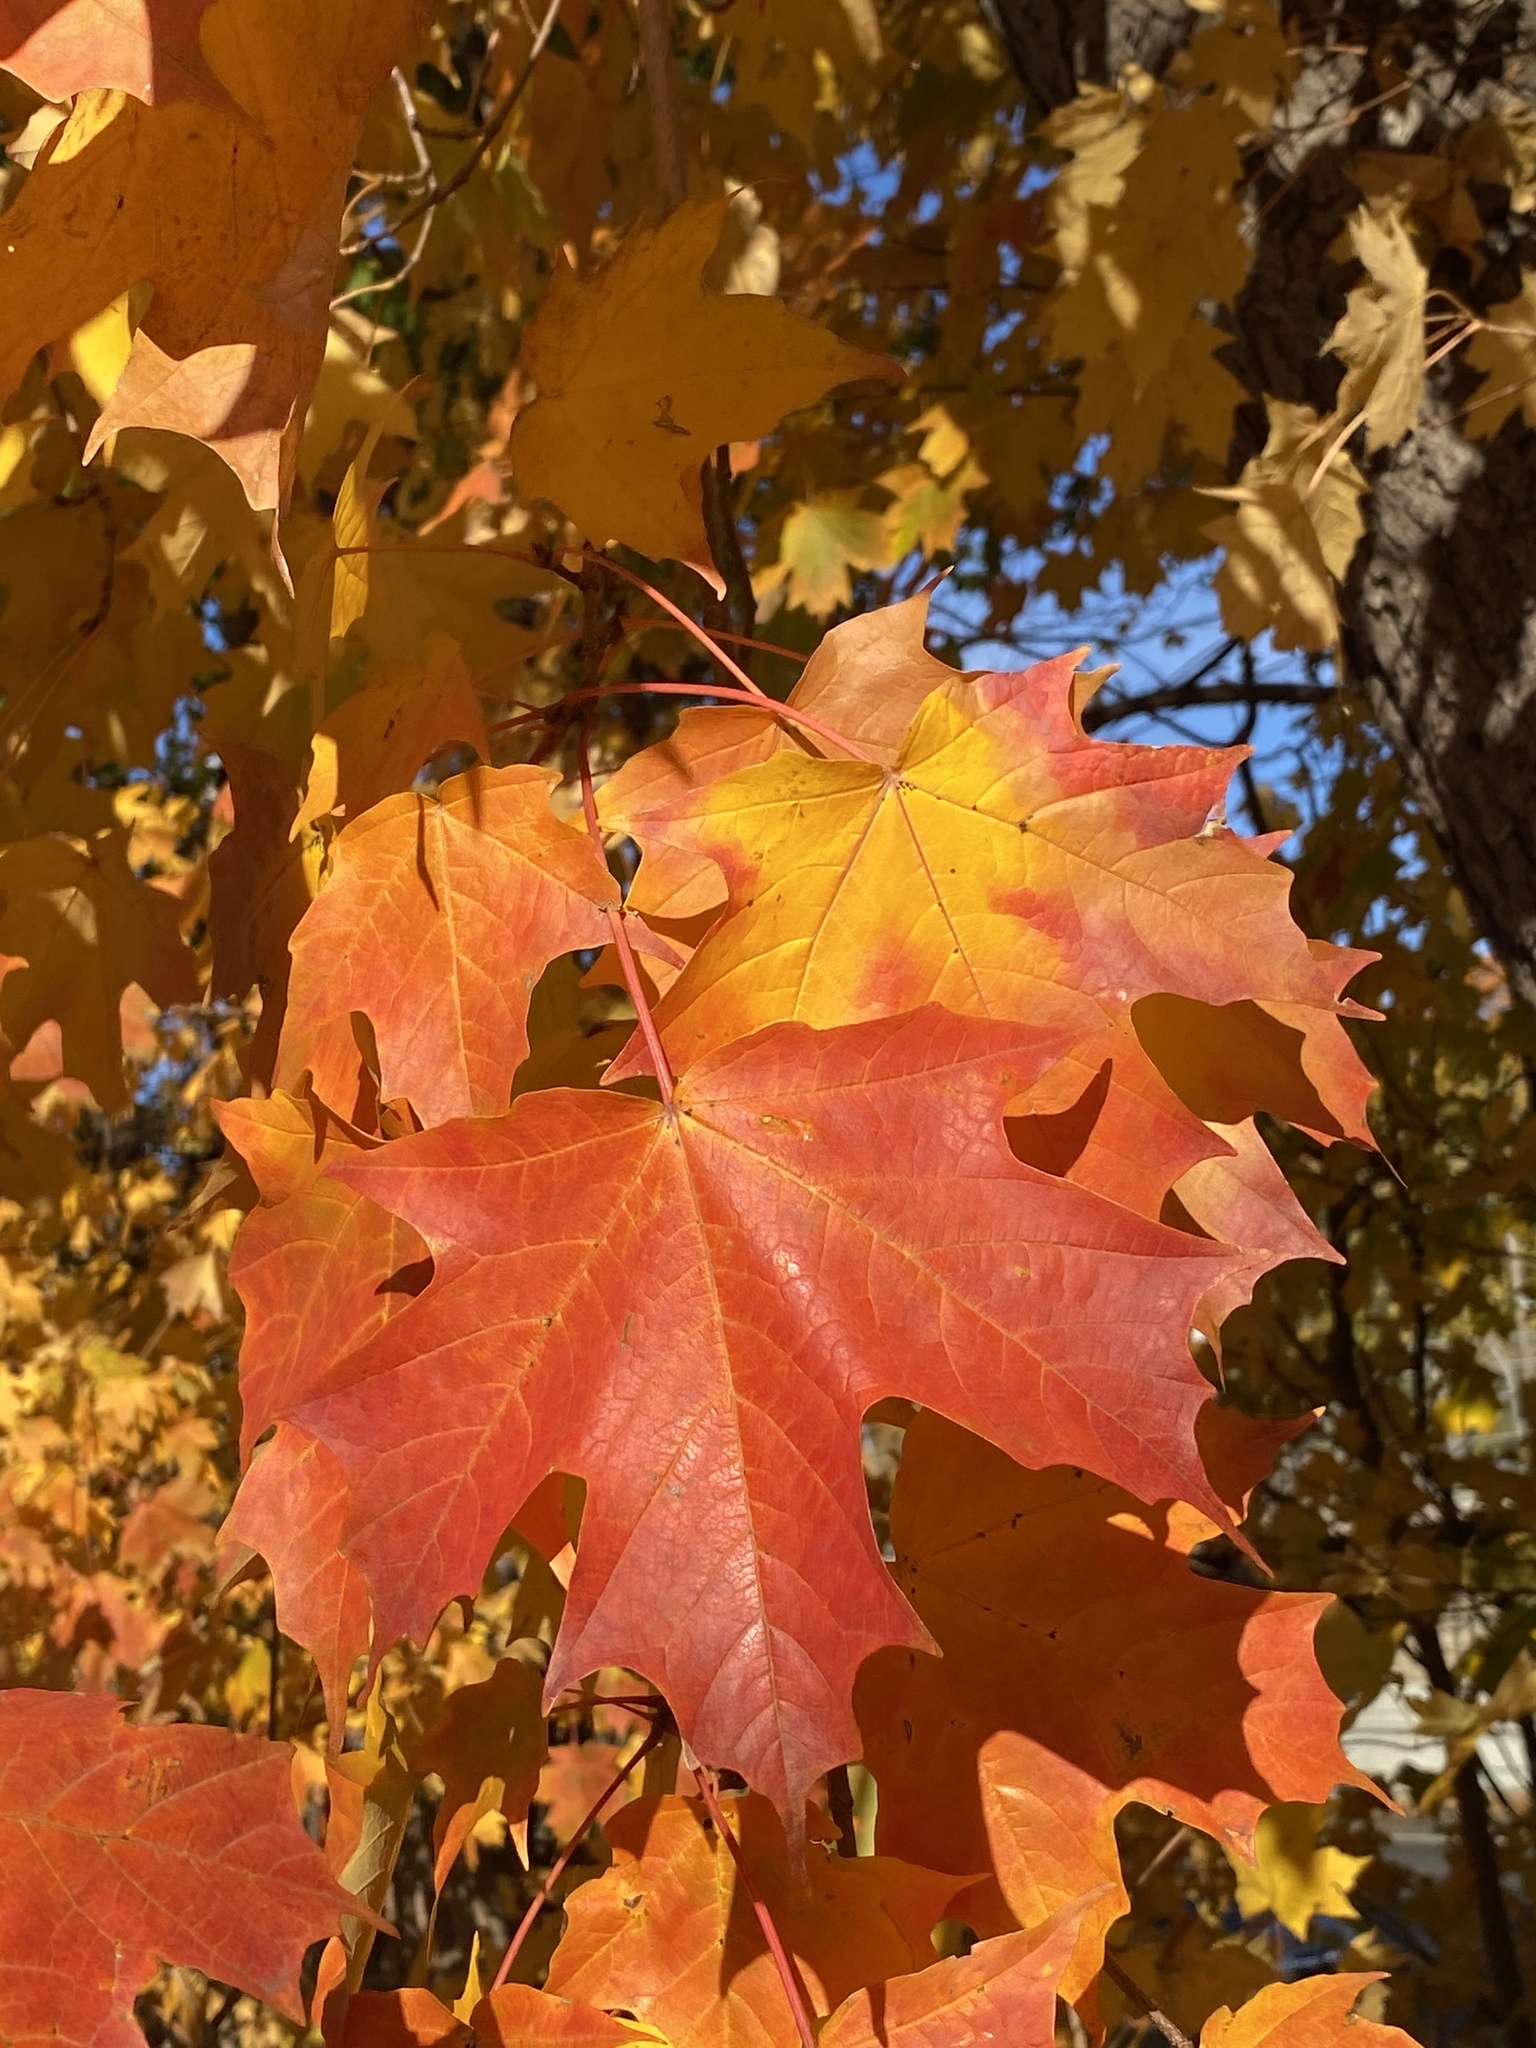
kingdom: Plantae
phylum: Tracheophyta
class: Magnoliopsida
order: Sapindales
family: Sapindaceae
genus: Acer
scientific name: Acer saccharum
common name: Sugar maple
